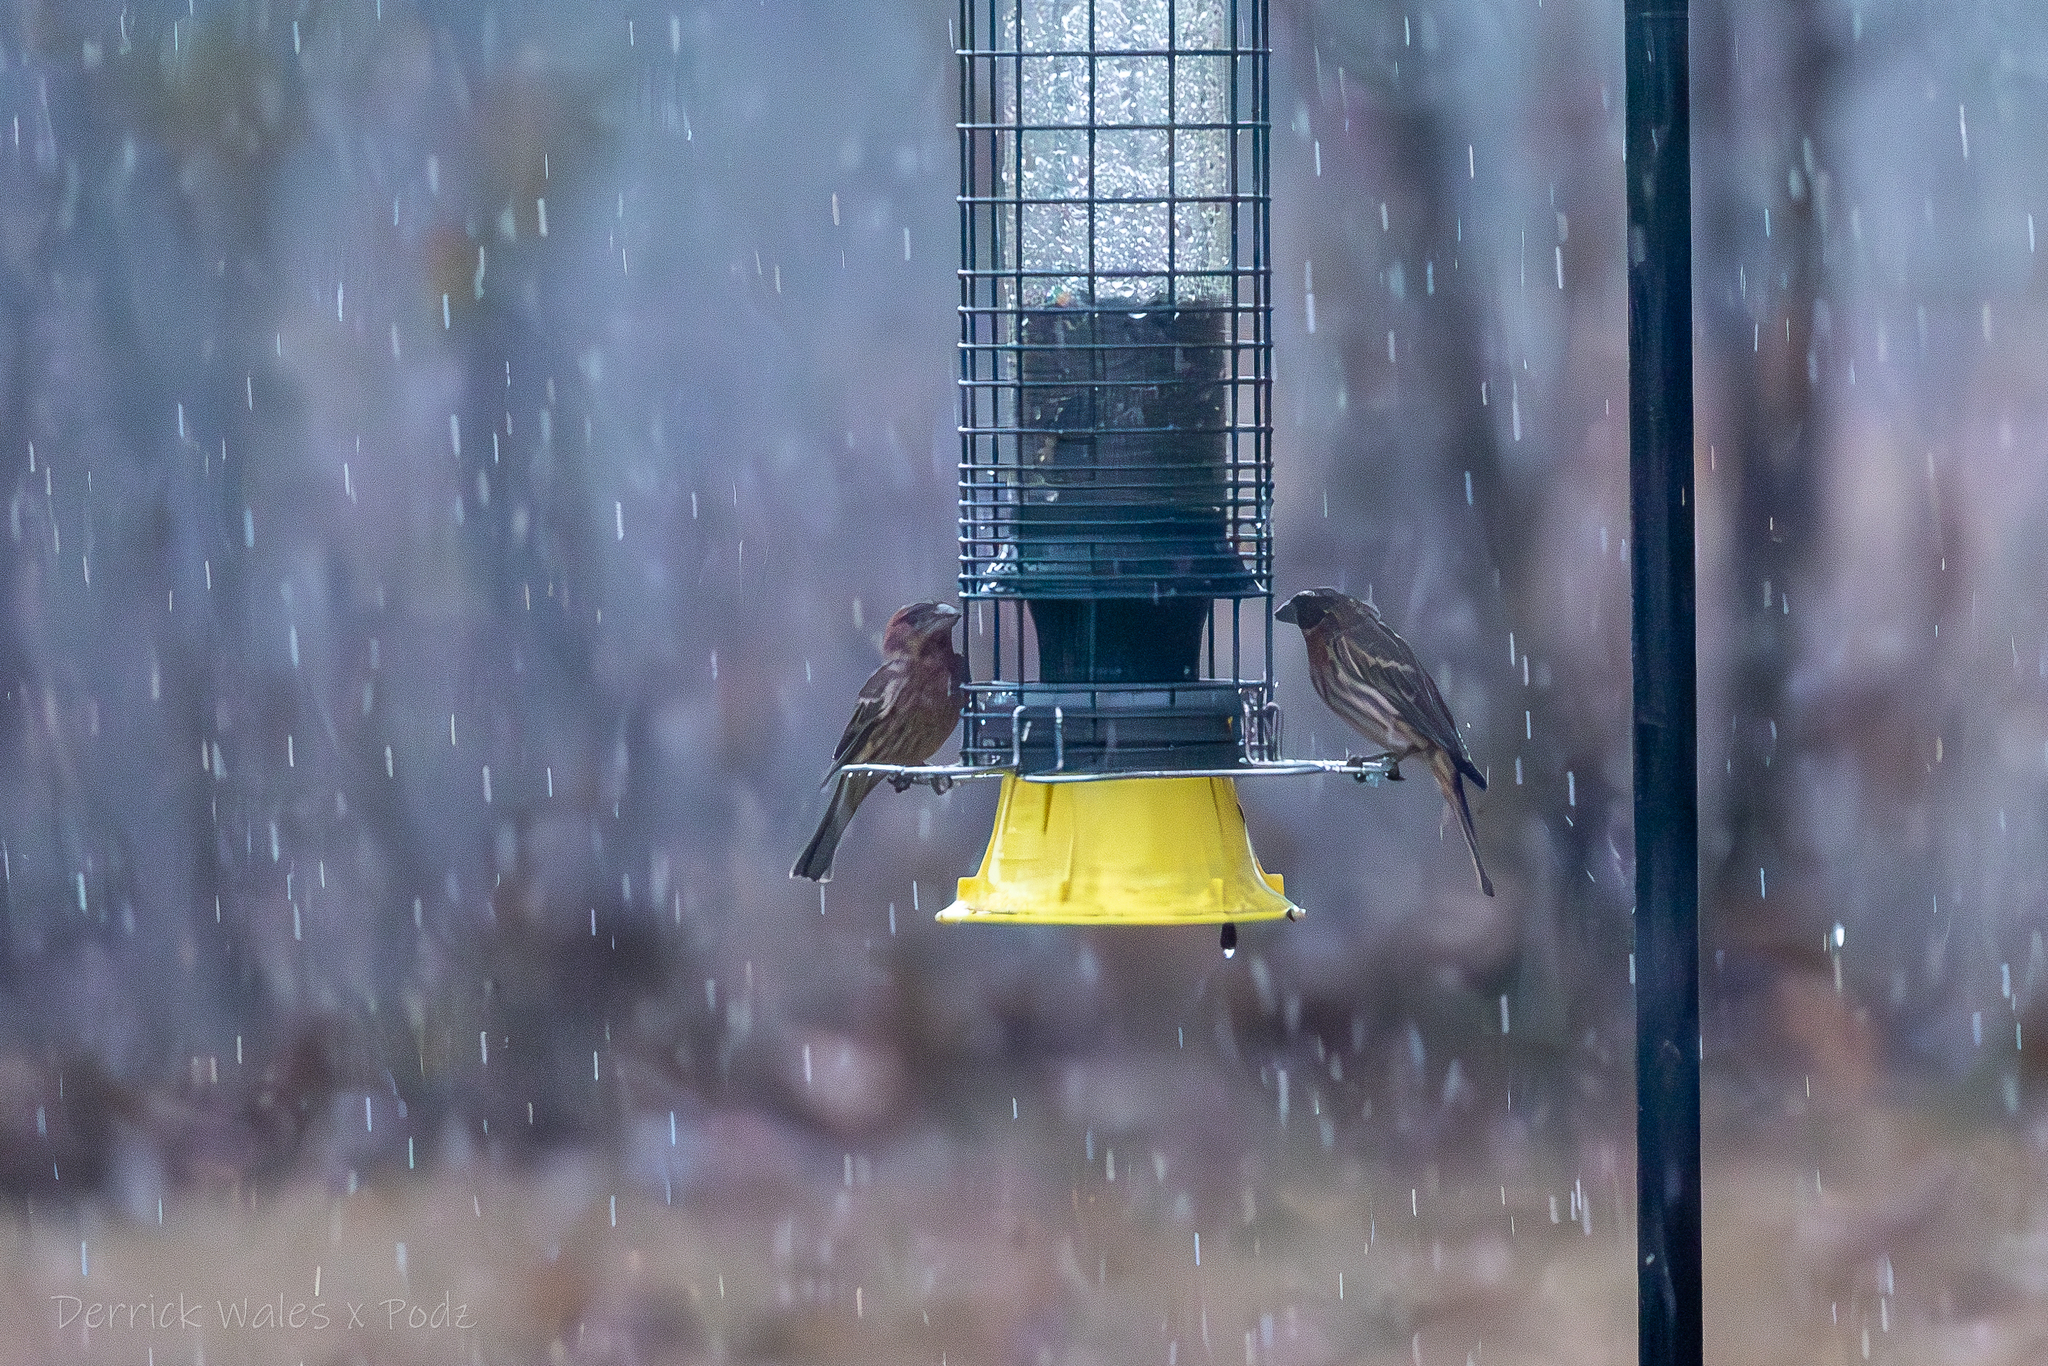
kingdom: Animalia
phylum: Chordata
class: Aves
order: Passeriformes
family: Fringillidae
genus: Haemorhous
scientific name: Haemorhous mexicanus
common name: House finch
